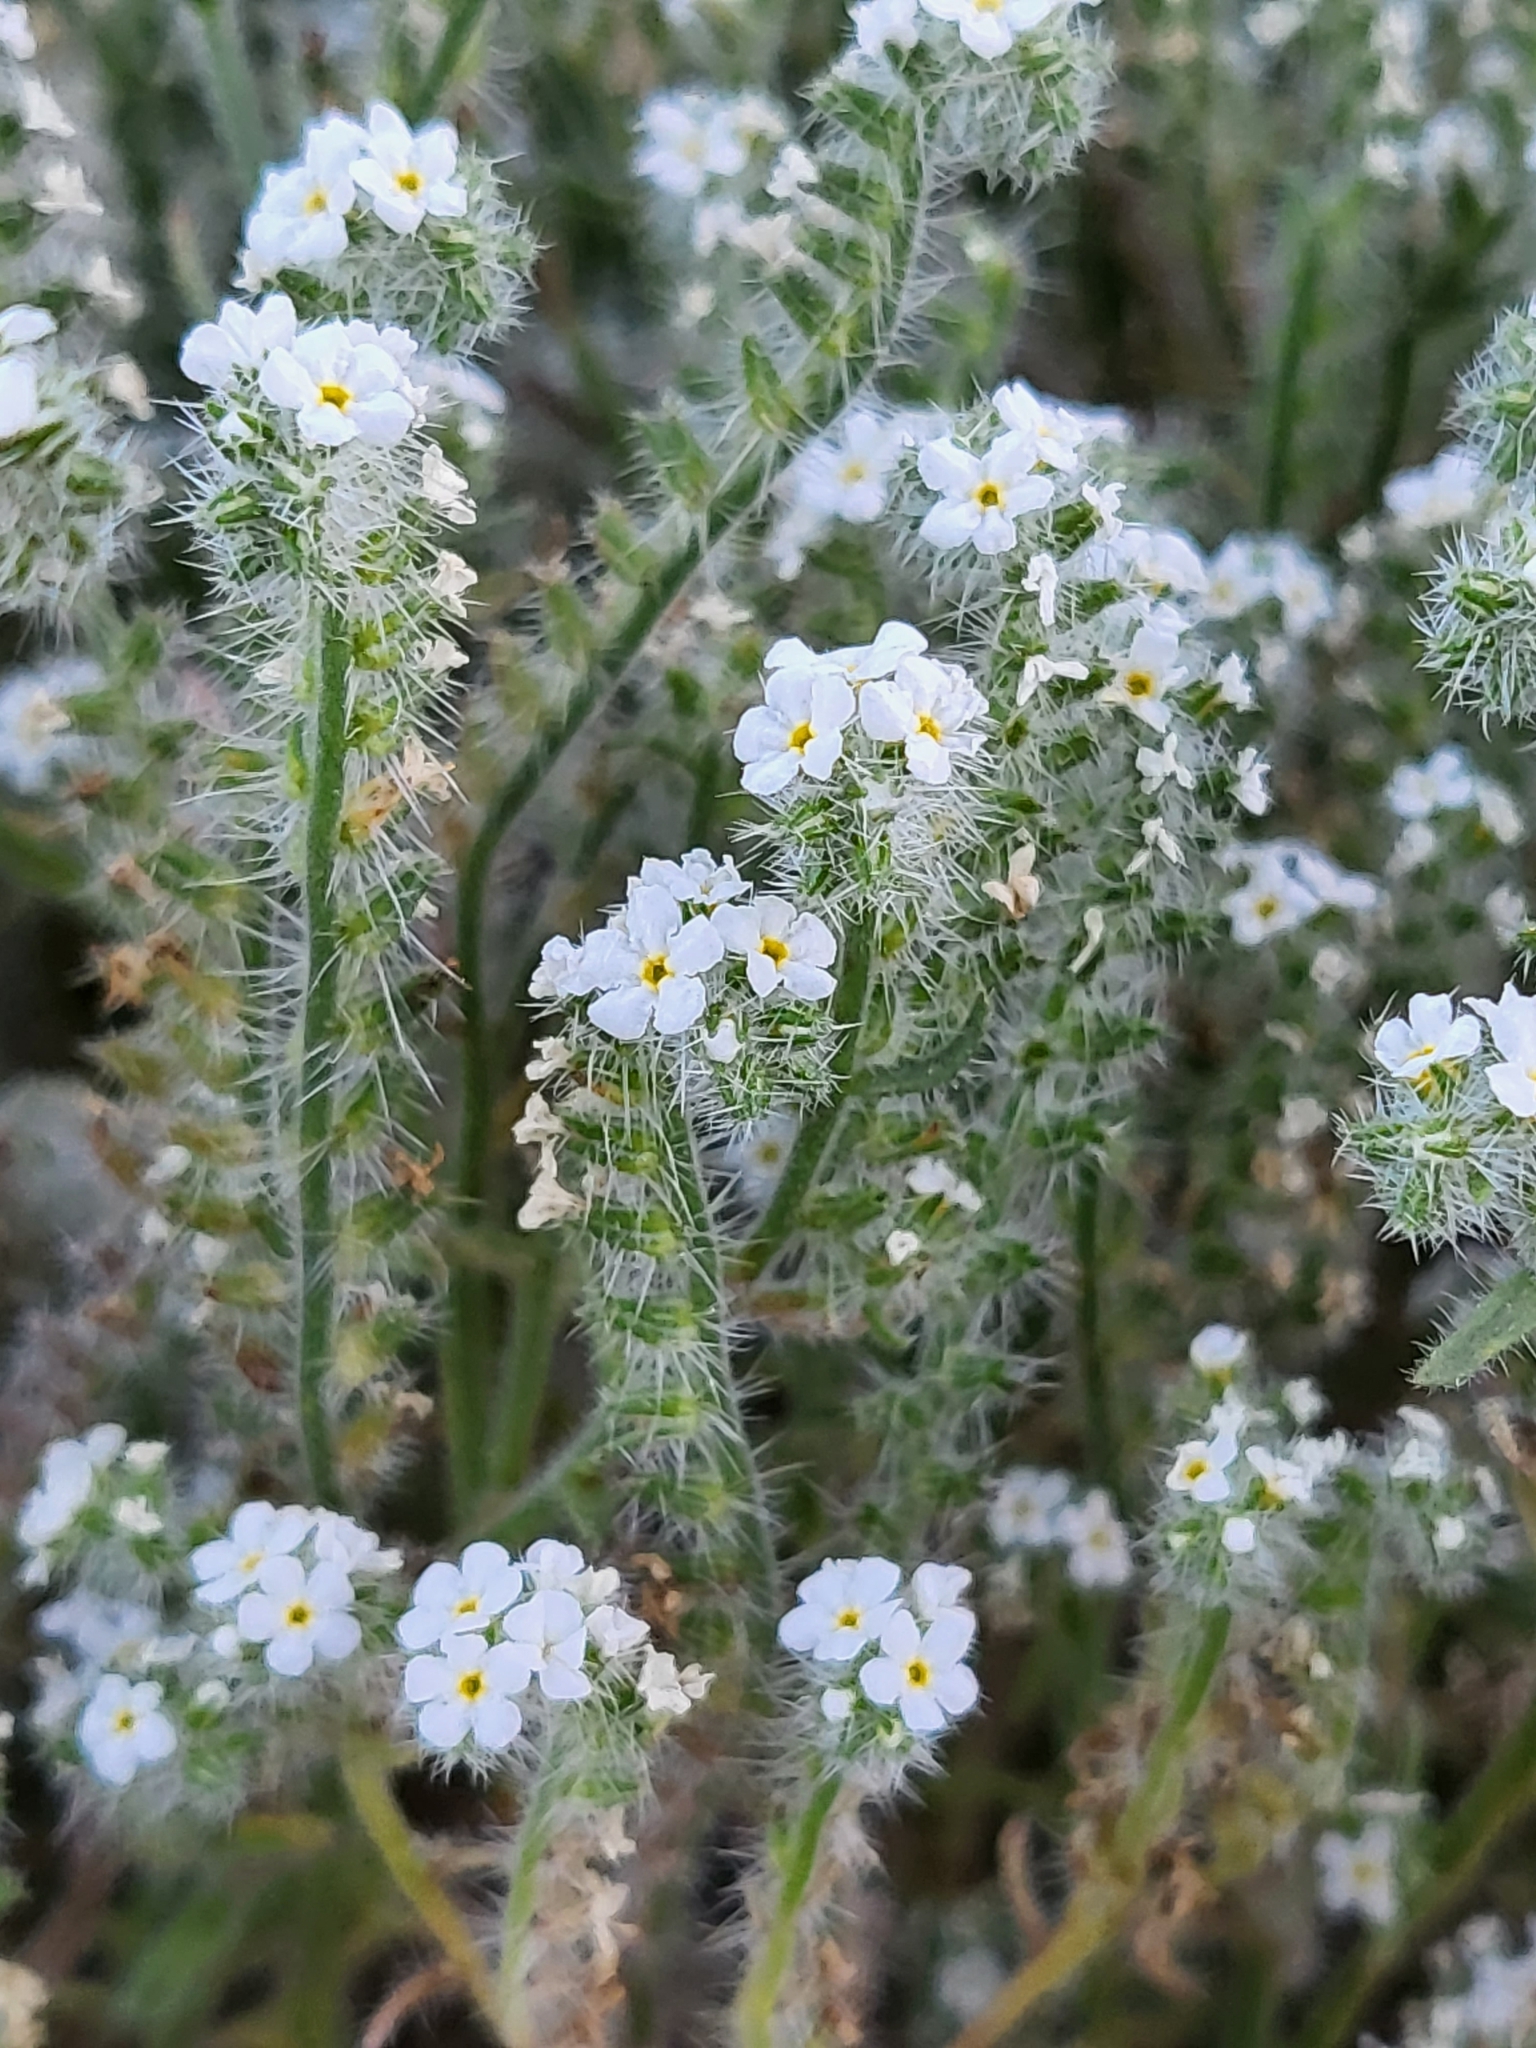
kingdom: Plantae
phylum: Tracheophyta
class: Magnoliopsida
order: Boraginales
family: Boraginaceae
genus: Johnstonella
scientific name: Johnstonella angustifolia
